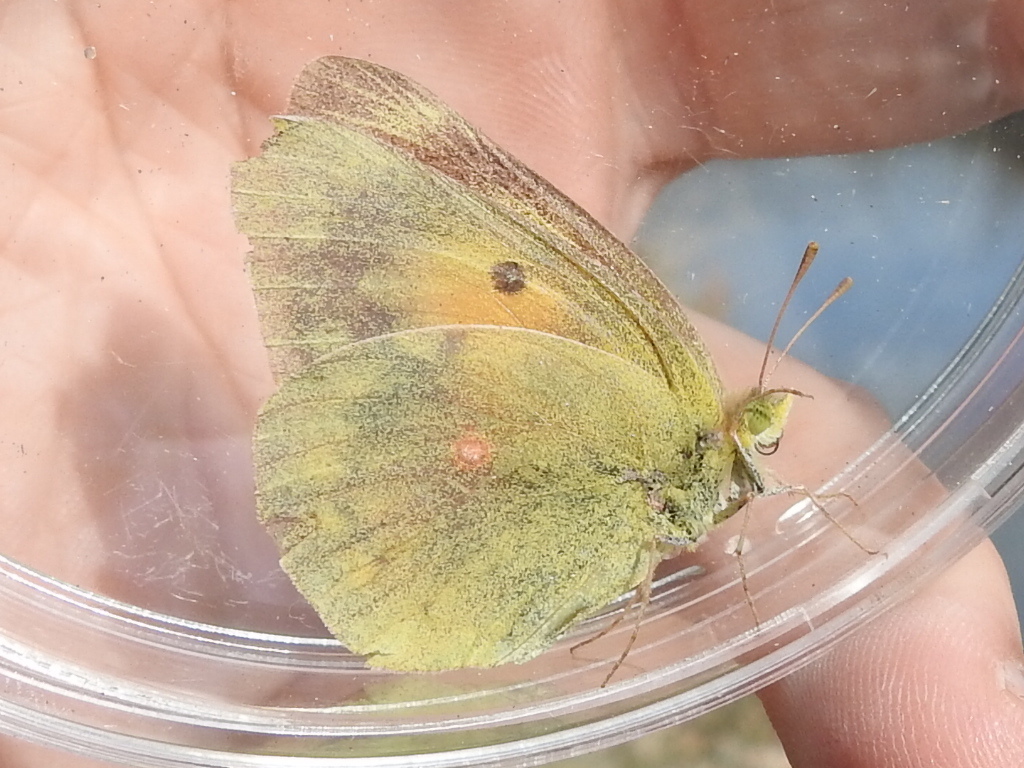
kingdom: Animalia
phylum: Arthropoda
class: Insecta
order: Lepidoptera
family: Pieridae
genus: Colias
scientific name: Colias eurytheme
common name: Alfalfa butterfly
